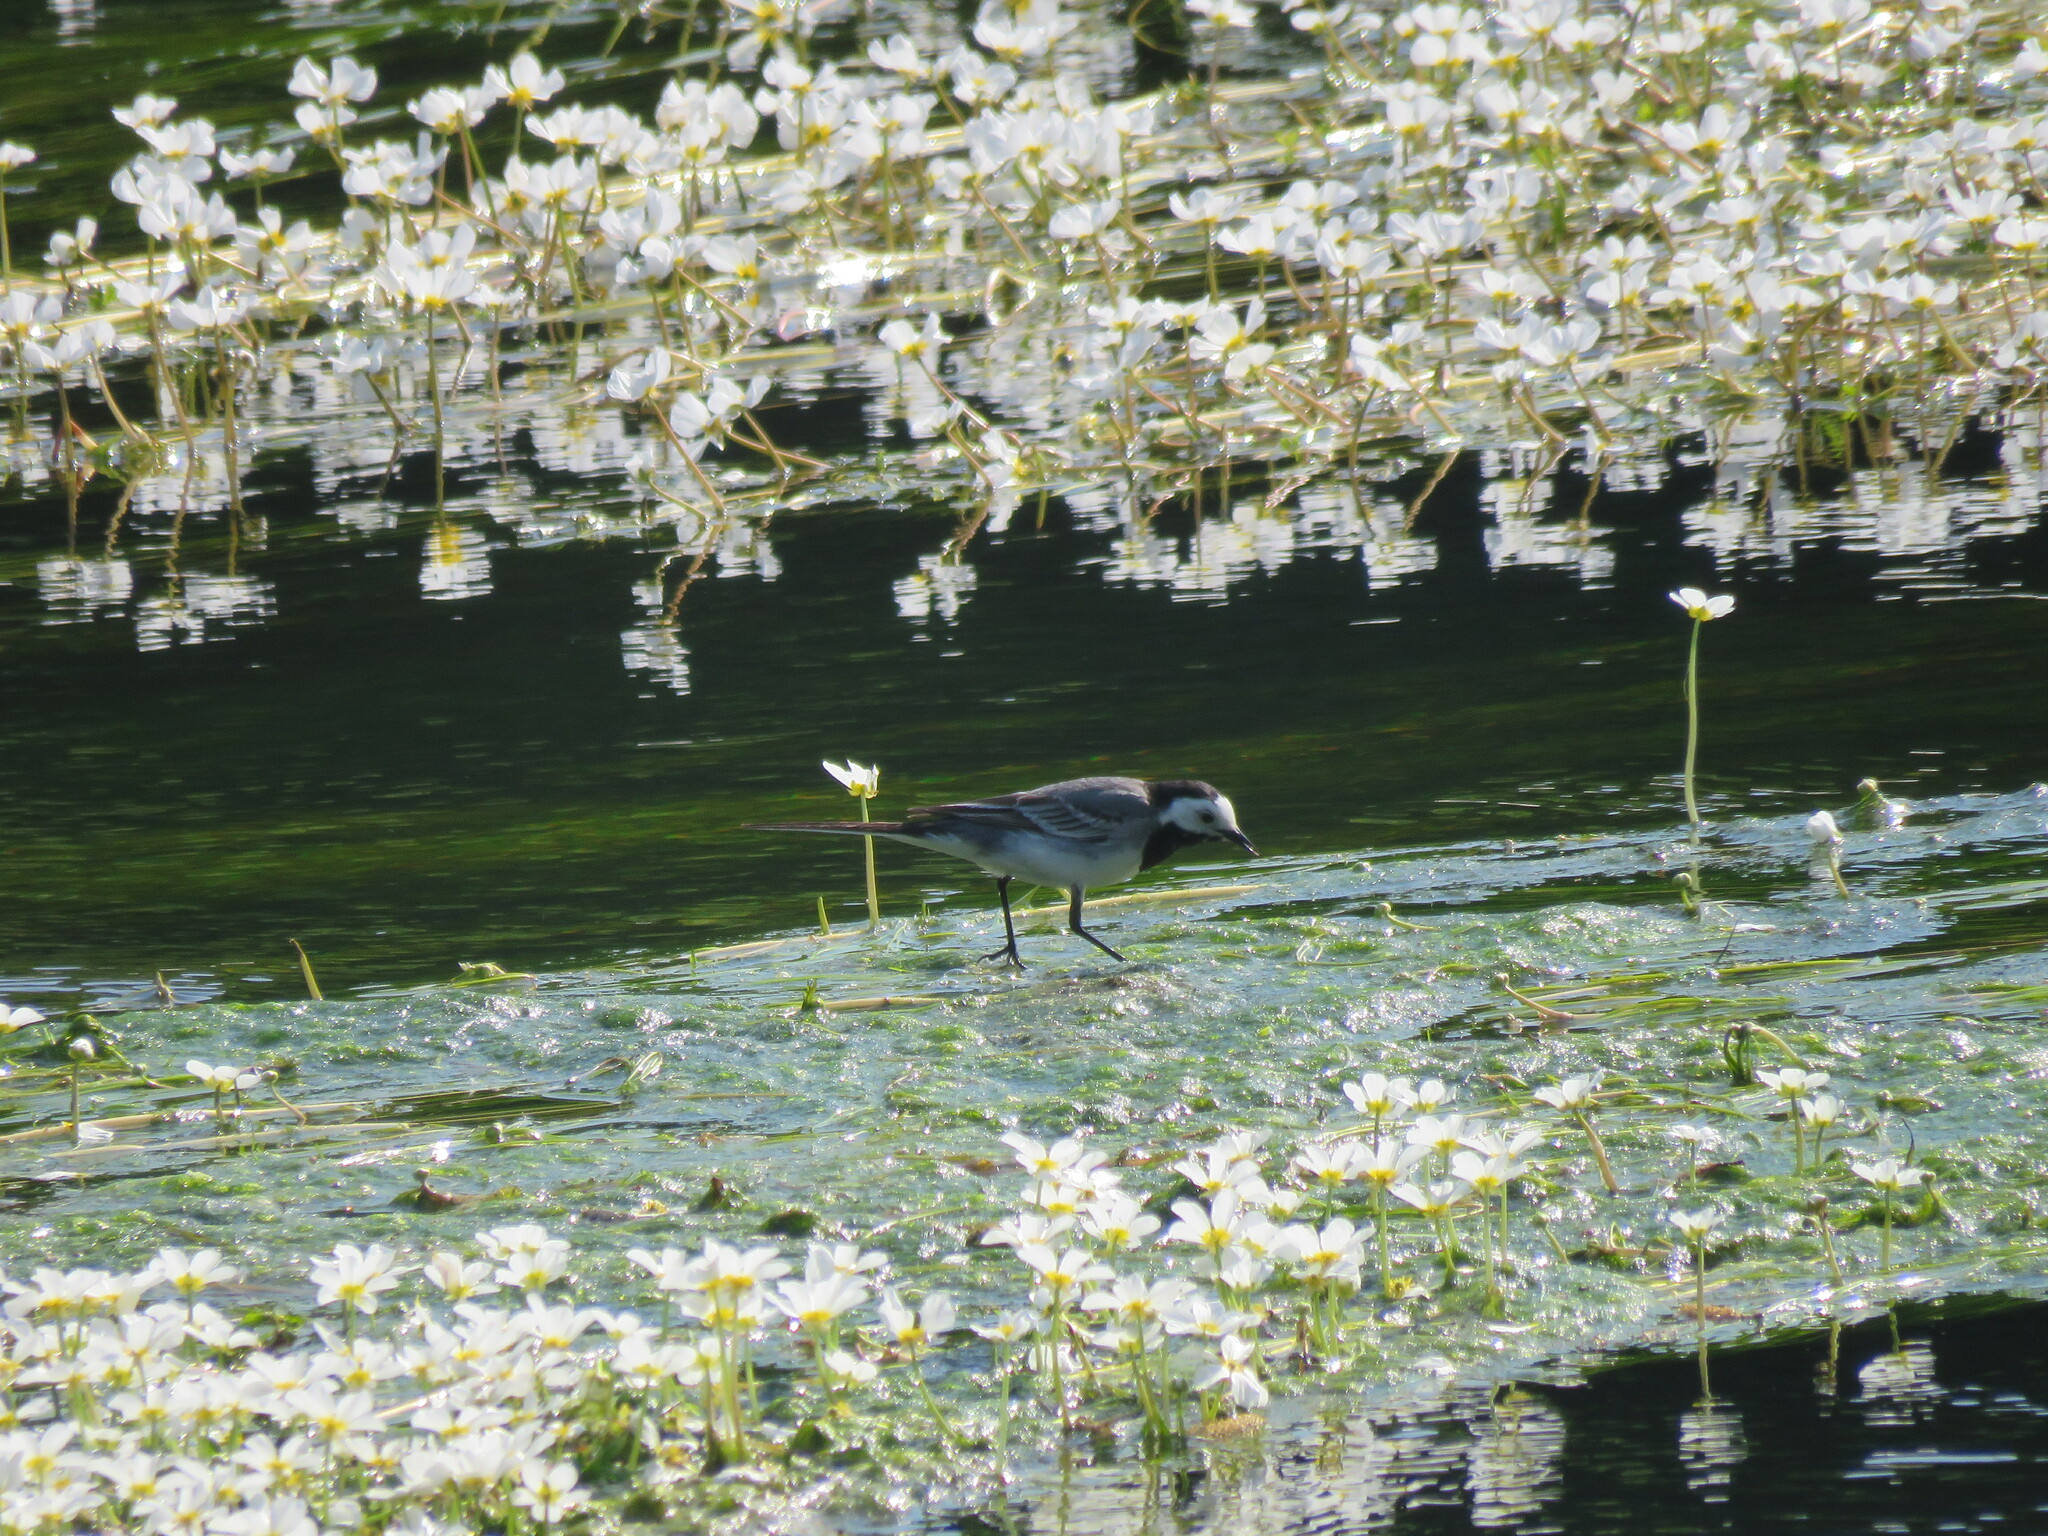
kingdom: Animalia
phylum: Chordata
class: Aves
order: Passeriformes
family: Motacillidae
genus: Motacilla
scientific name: Motacilla alba
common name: White wagtail
